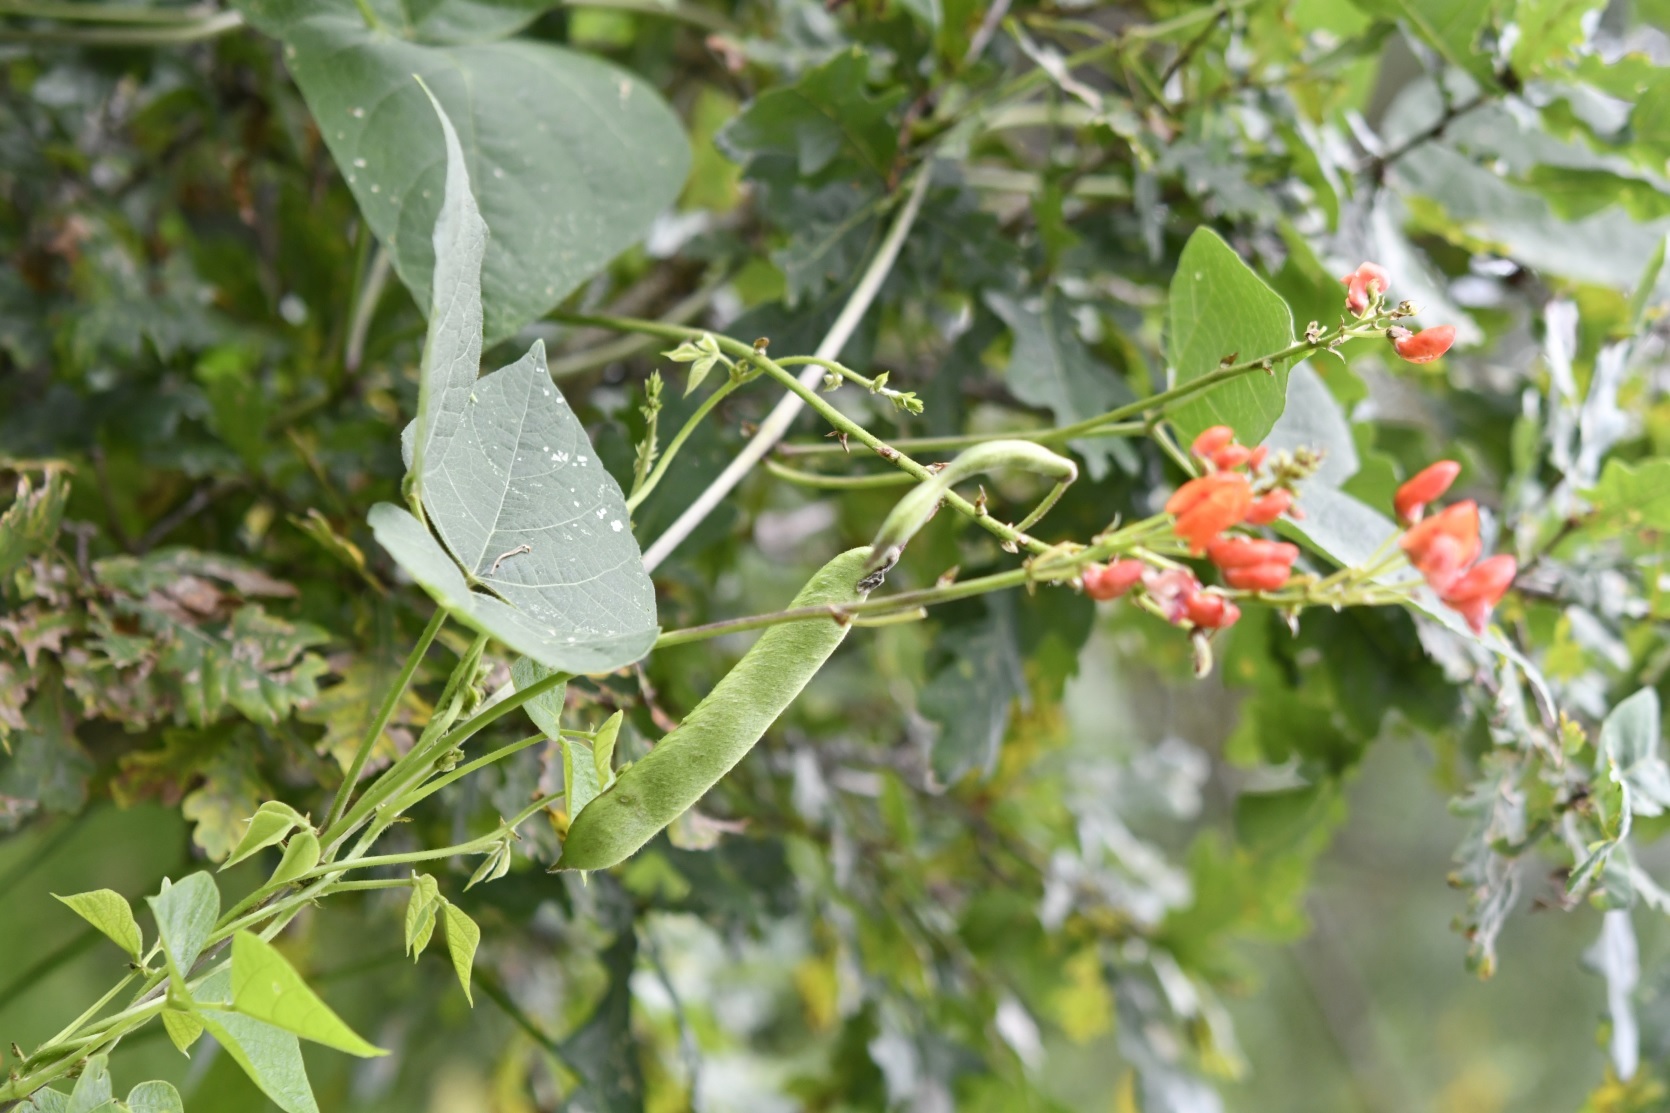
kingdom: Plantae
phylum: Tracheophyta
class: Magnoliopsida
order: Fabales
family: Fabaceae
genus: Phaseolus
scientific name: Phaseolus coccineus
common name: Runner bean
